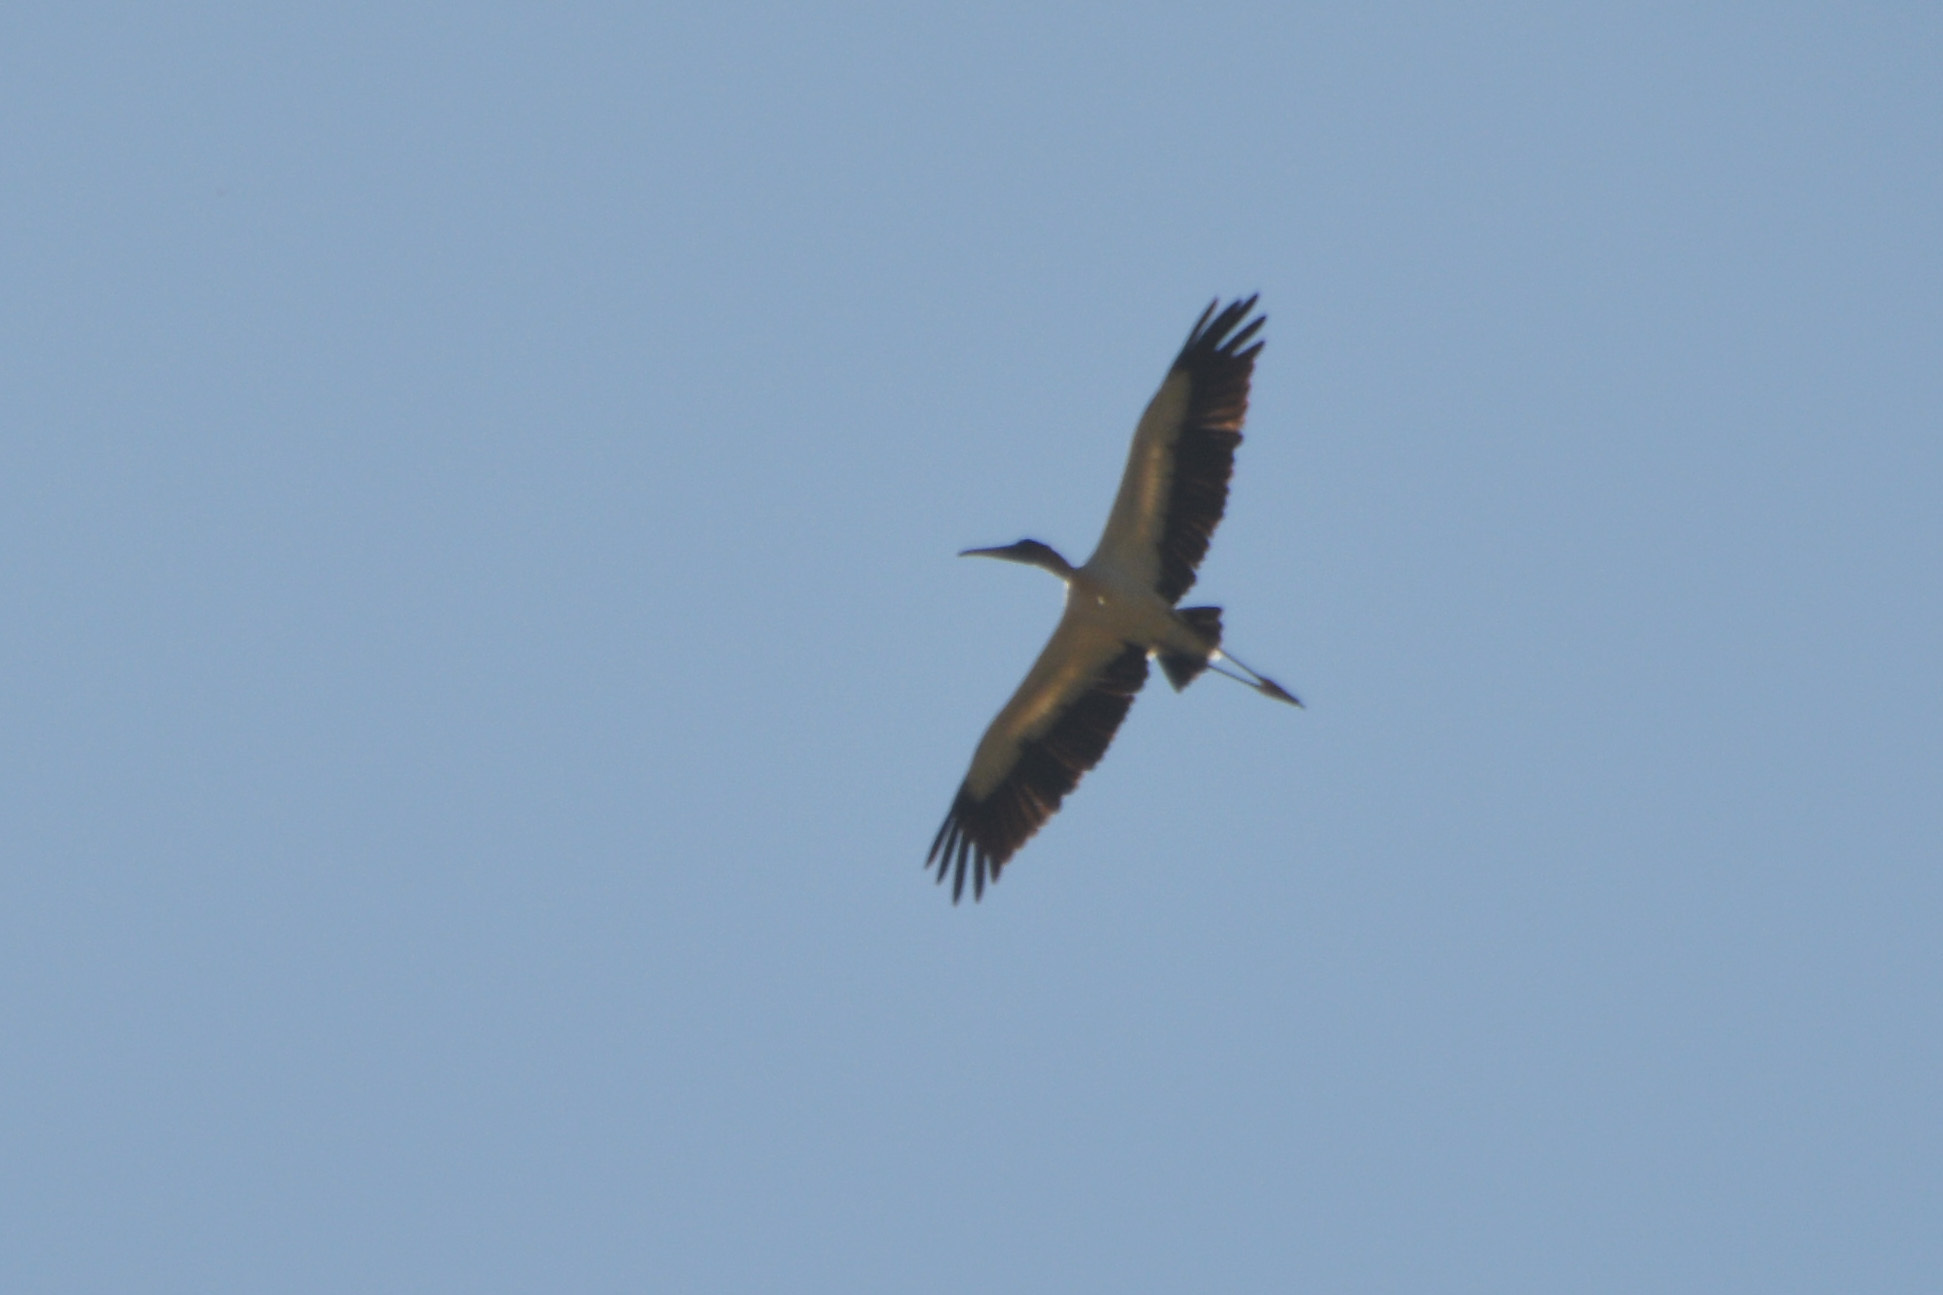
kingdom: Animalia
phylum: Chordata
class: Aves
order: Ciconiiformes
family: Ciconiidae
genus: Mycteria
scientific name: Mycteria americana
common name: Wood stork
